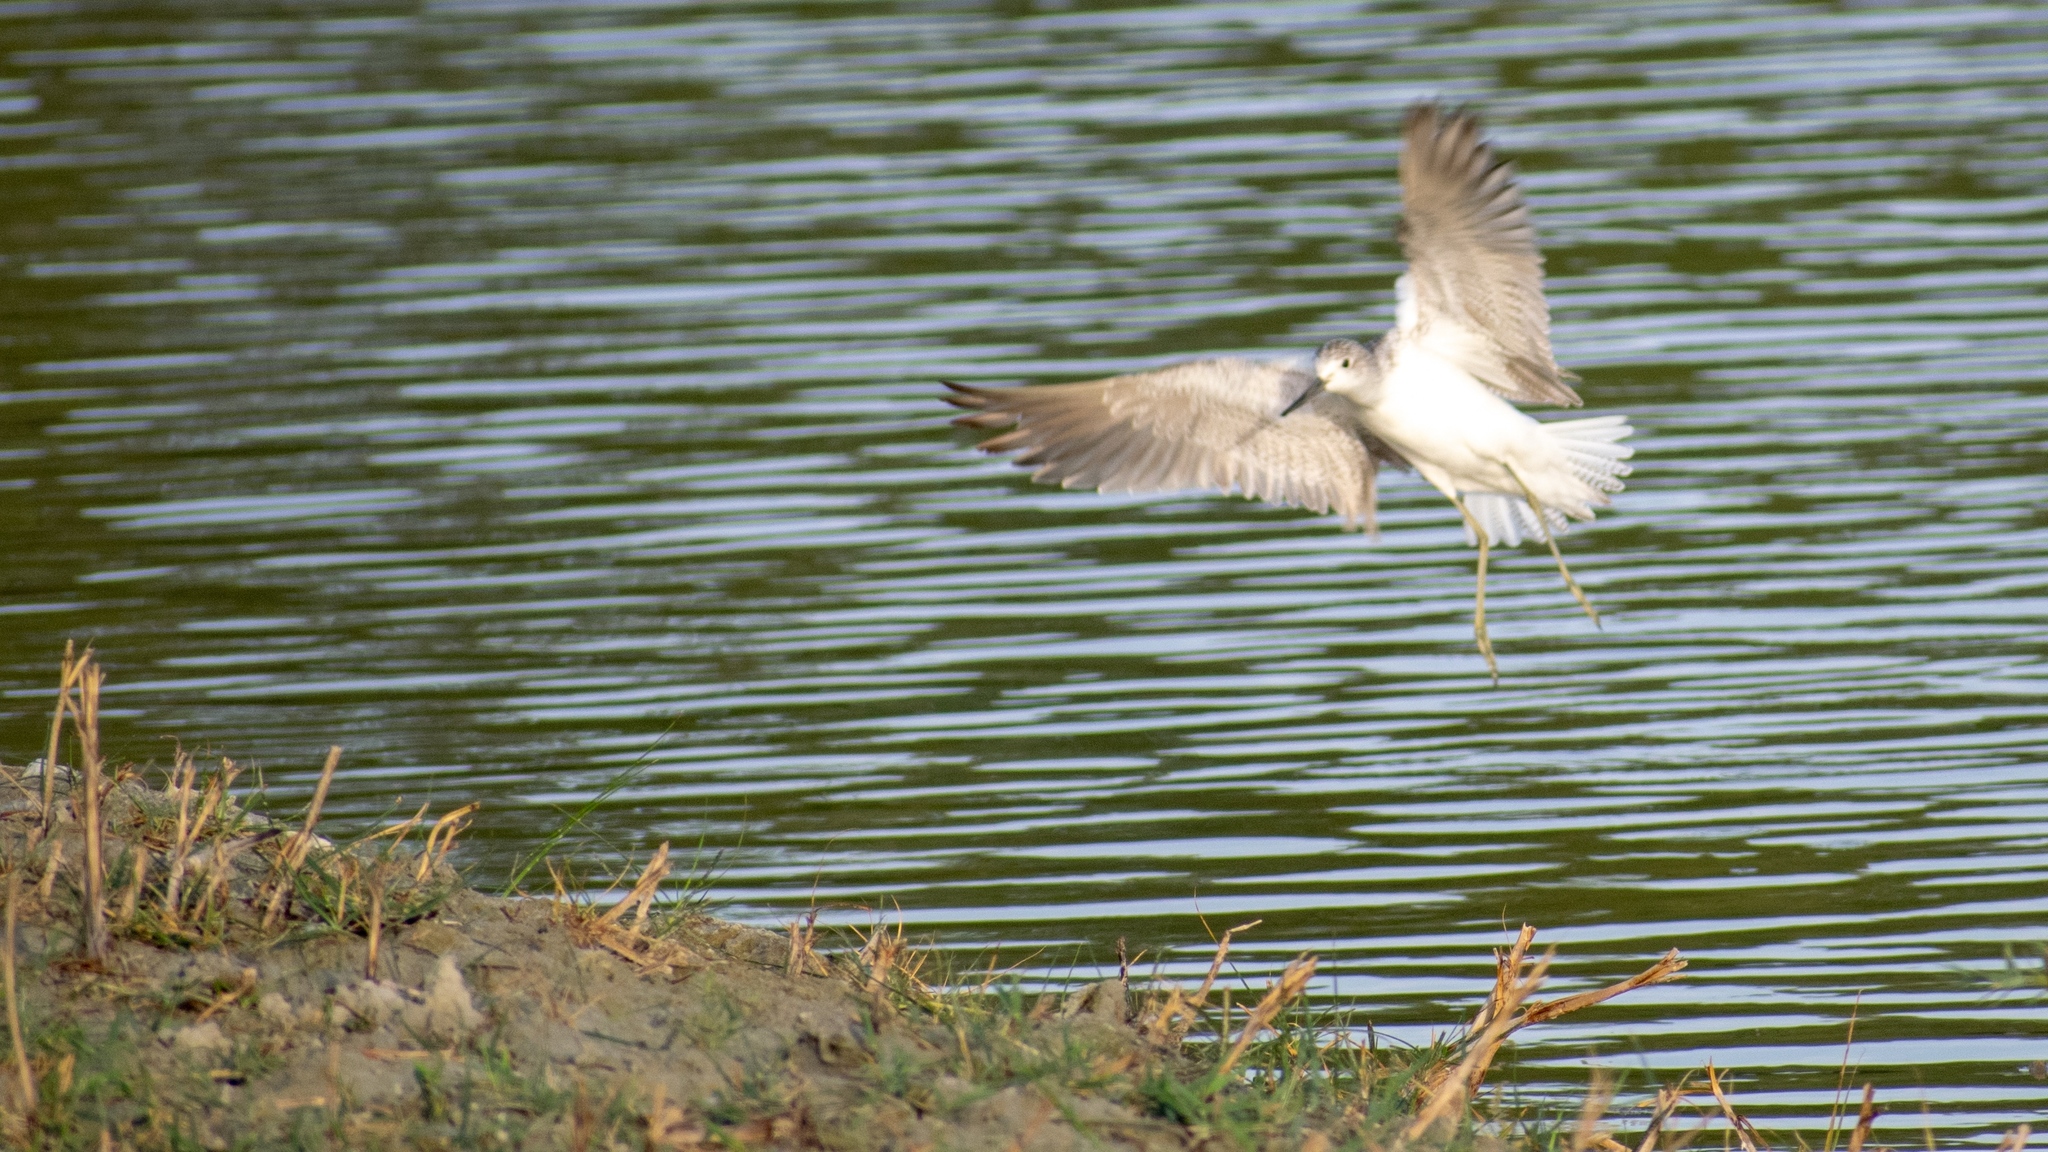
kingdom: Animalia
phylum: Chordata
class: Aves
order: Charadriiformes
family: Scolopacidae
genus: Tringa
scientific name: Tringa nebularia
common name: Common greenshank
